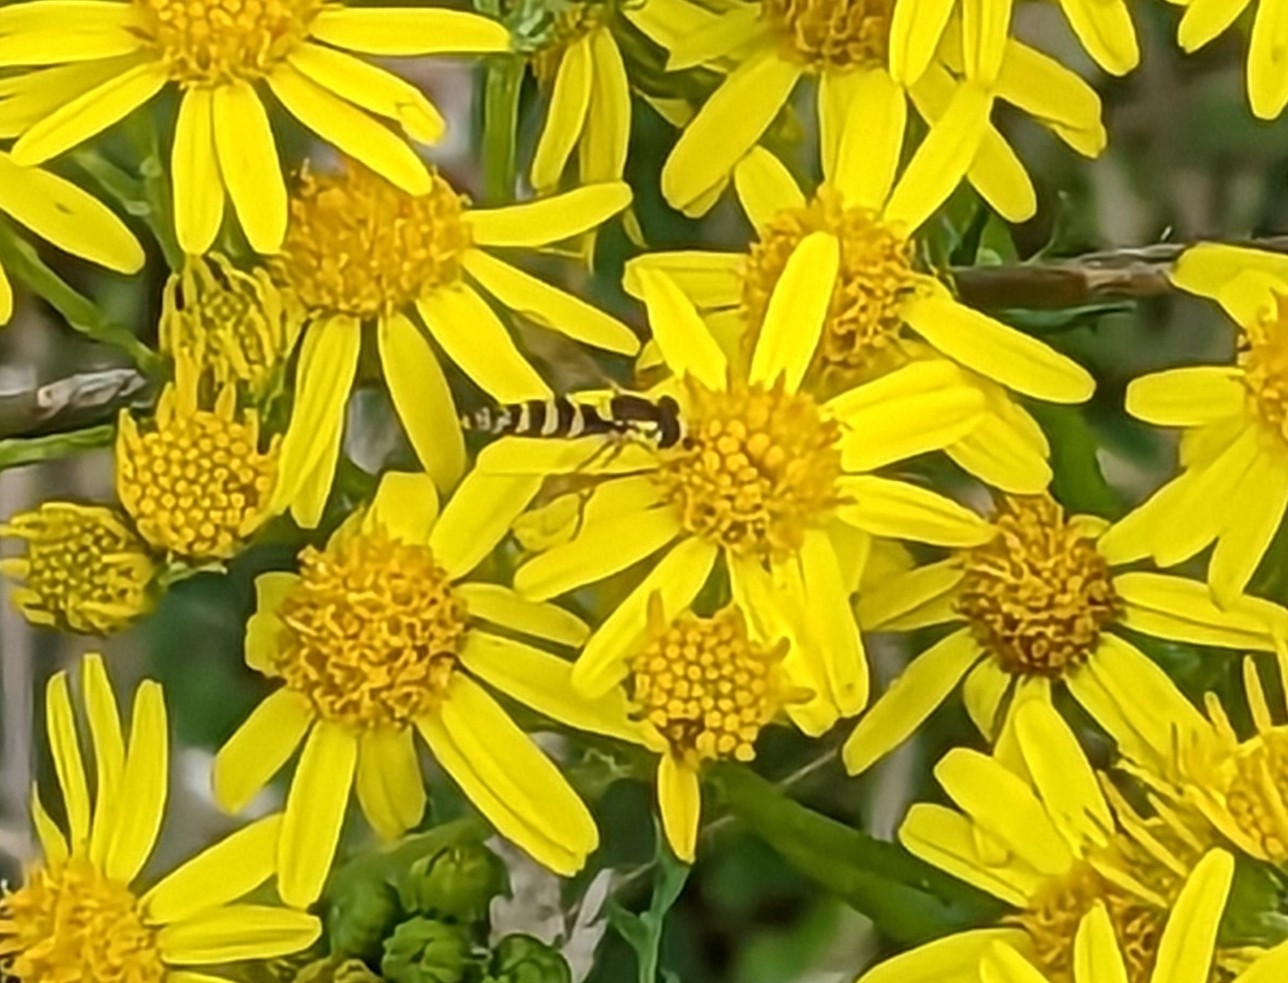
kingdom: Animalia
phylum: Arthropoda
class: Insecta
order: Diptera
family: Syrphidae
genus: Sphaerophoria
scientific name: Sphaerophoria
